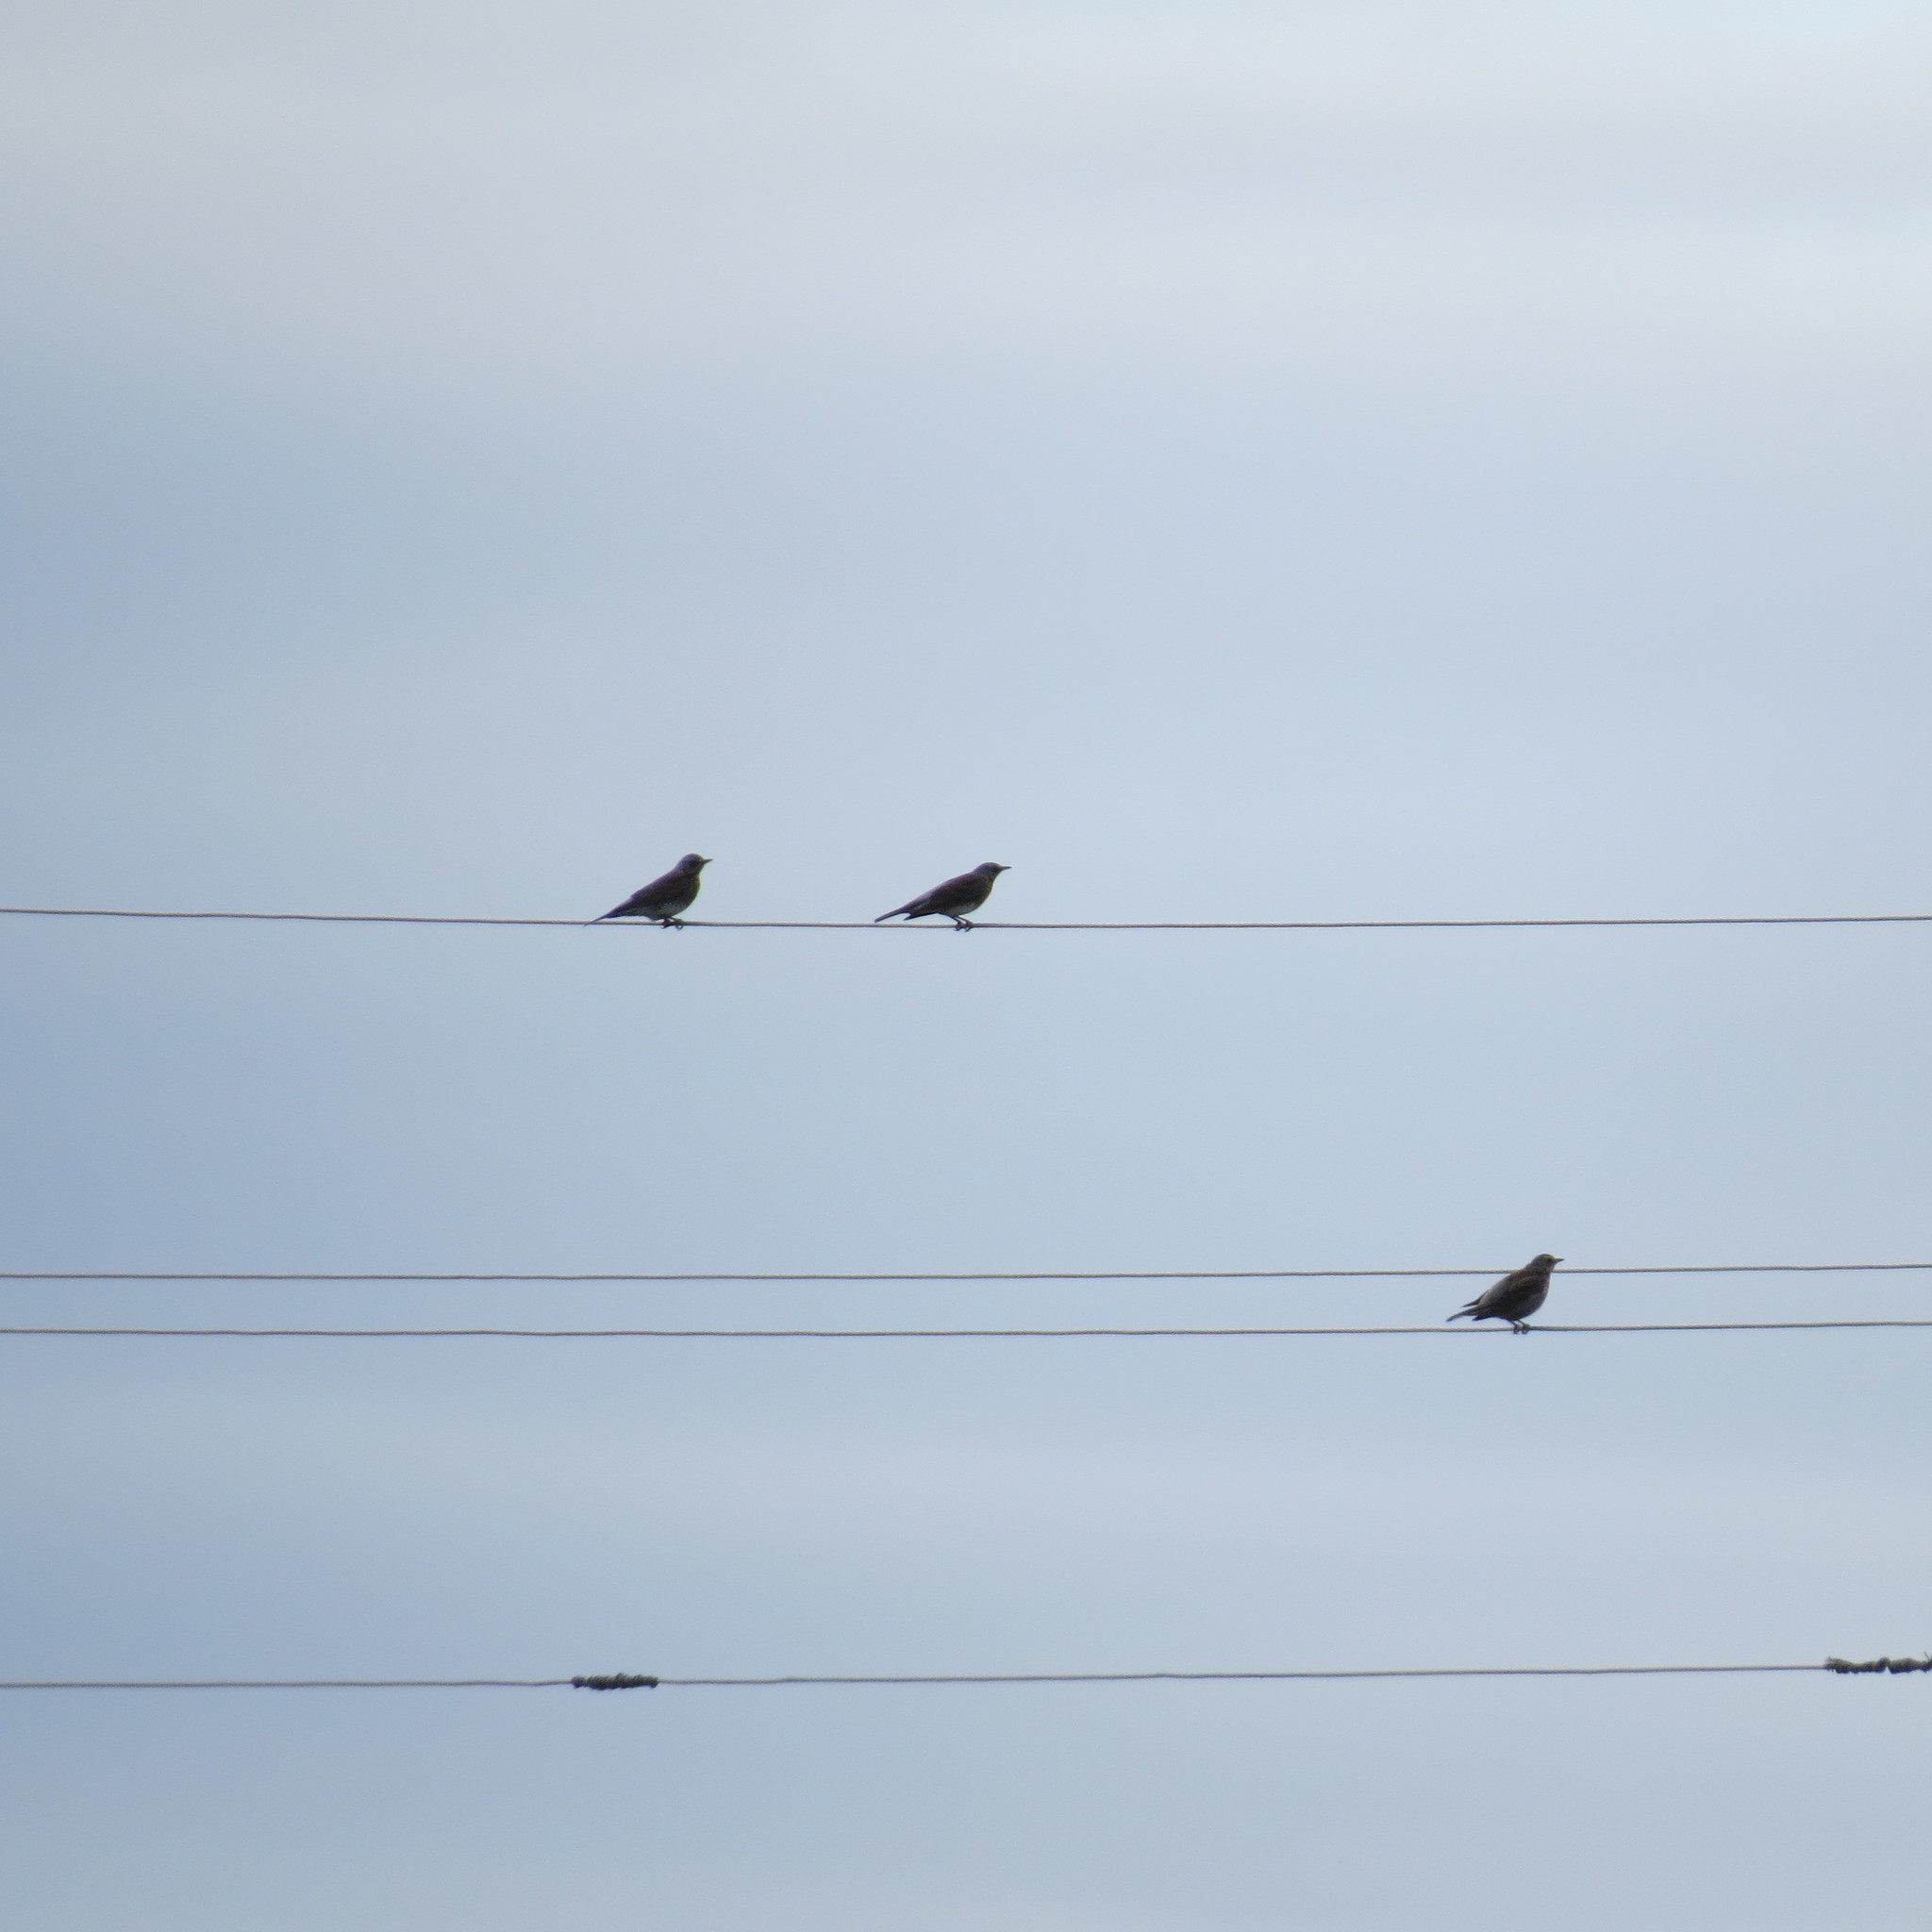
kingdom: Animalia
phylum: Chordata
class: Aves
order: Passeriformes
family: Turdidae
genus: Turdus
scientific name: Turdus pilaris
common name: Fieldfare
